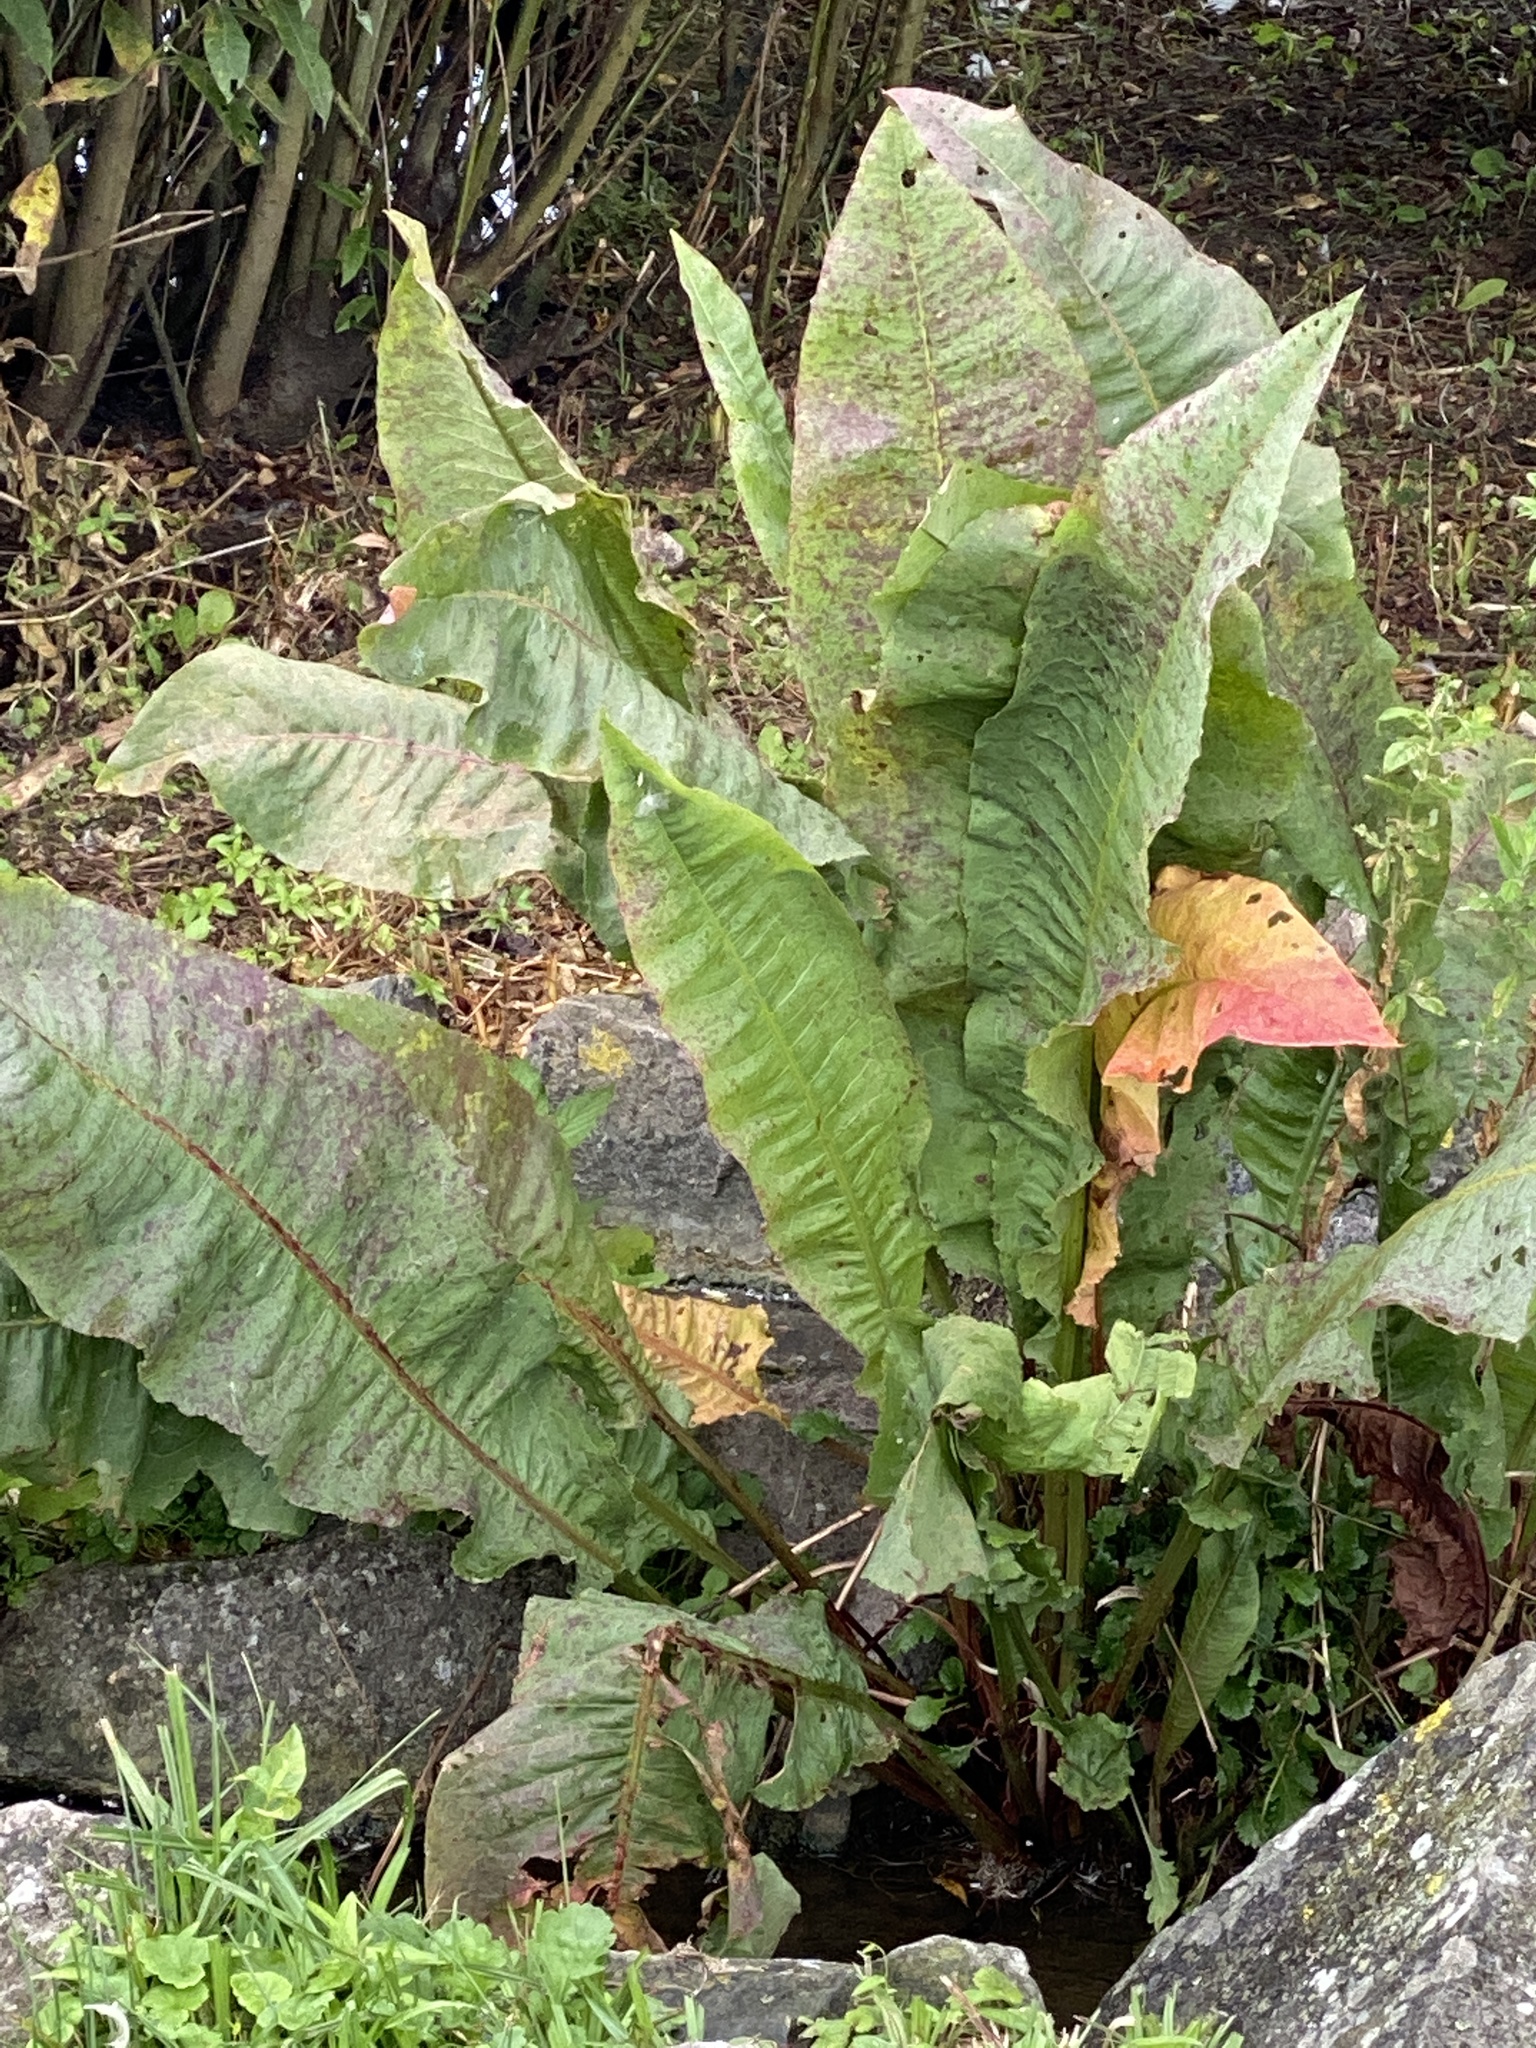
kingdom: Plantae
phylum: Tracheophyta
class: Magnoliopsida
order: Caryophyllales
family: Polygonaceae
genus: Rumex
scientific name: Rumex hydrolapathum
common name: Water dock
